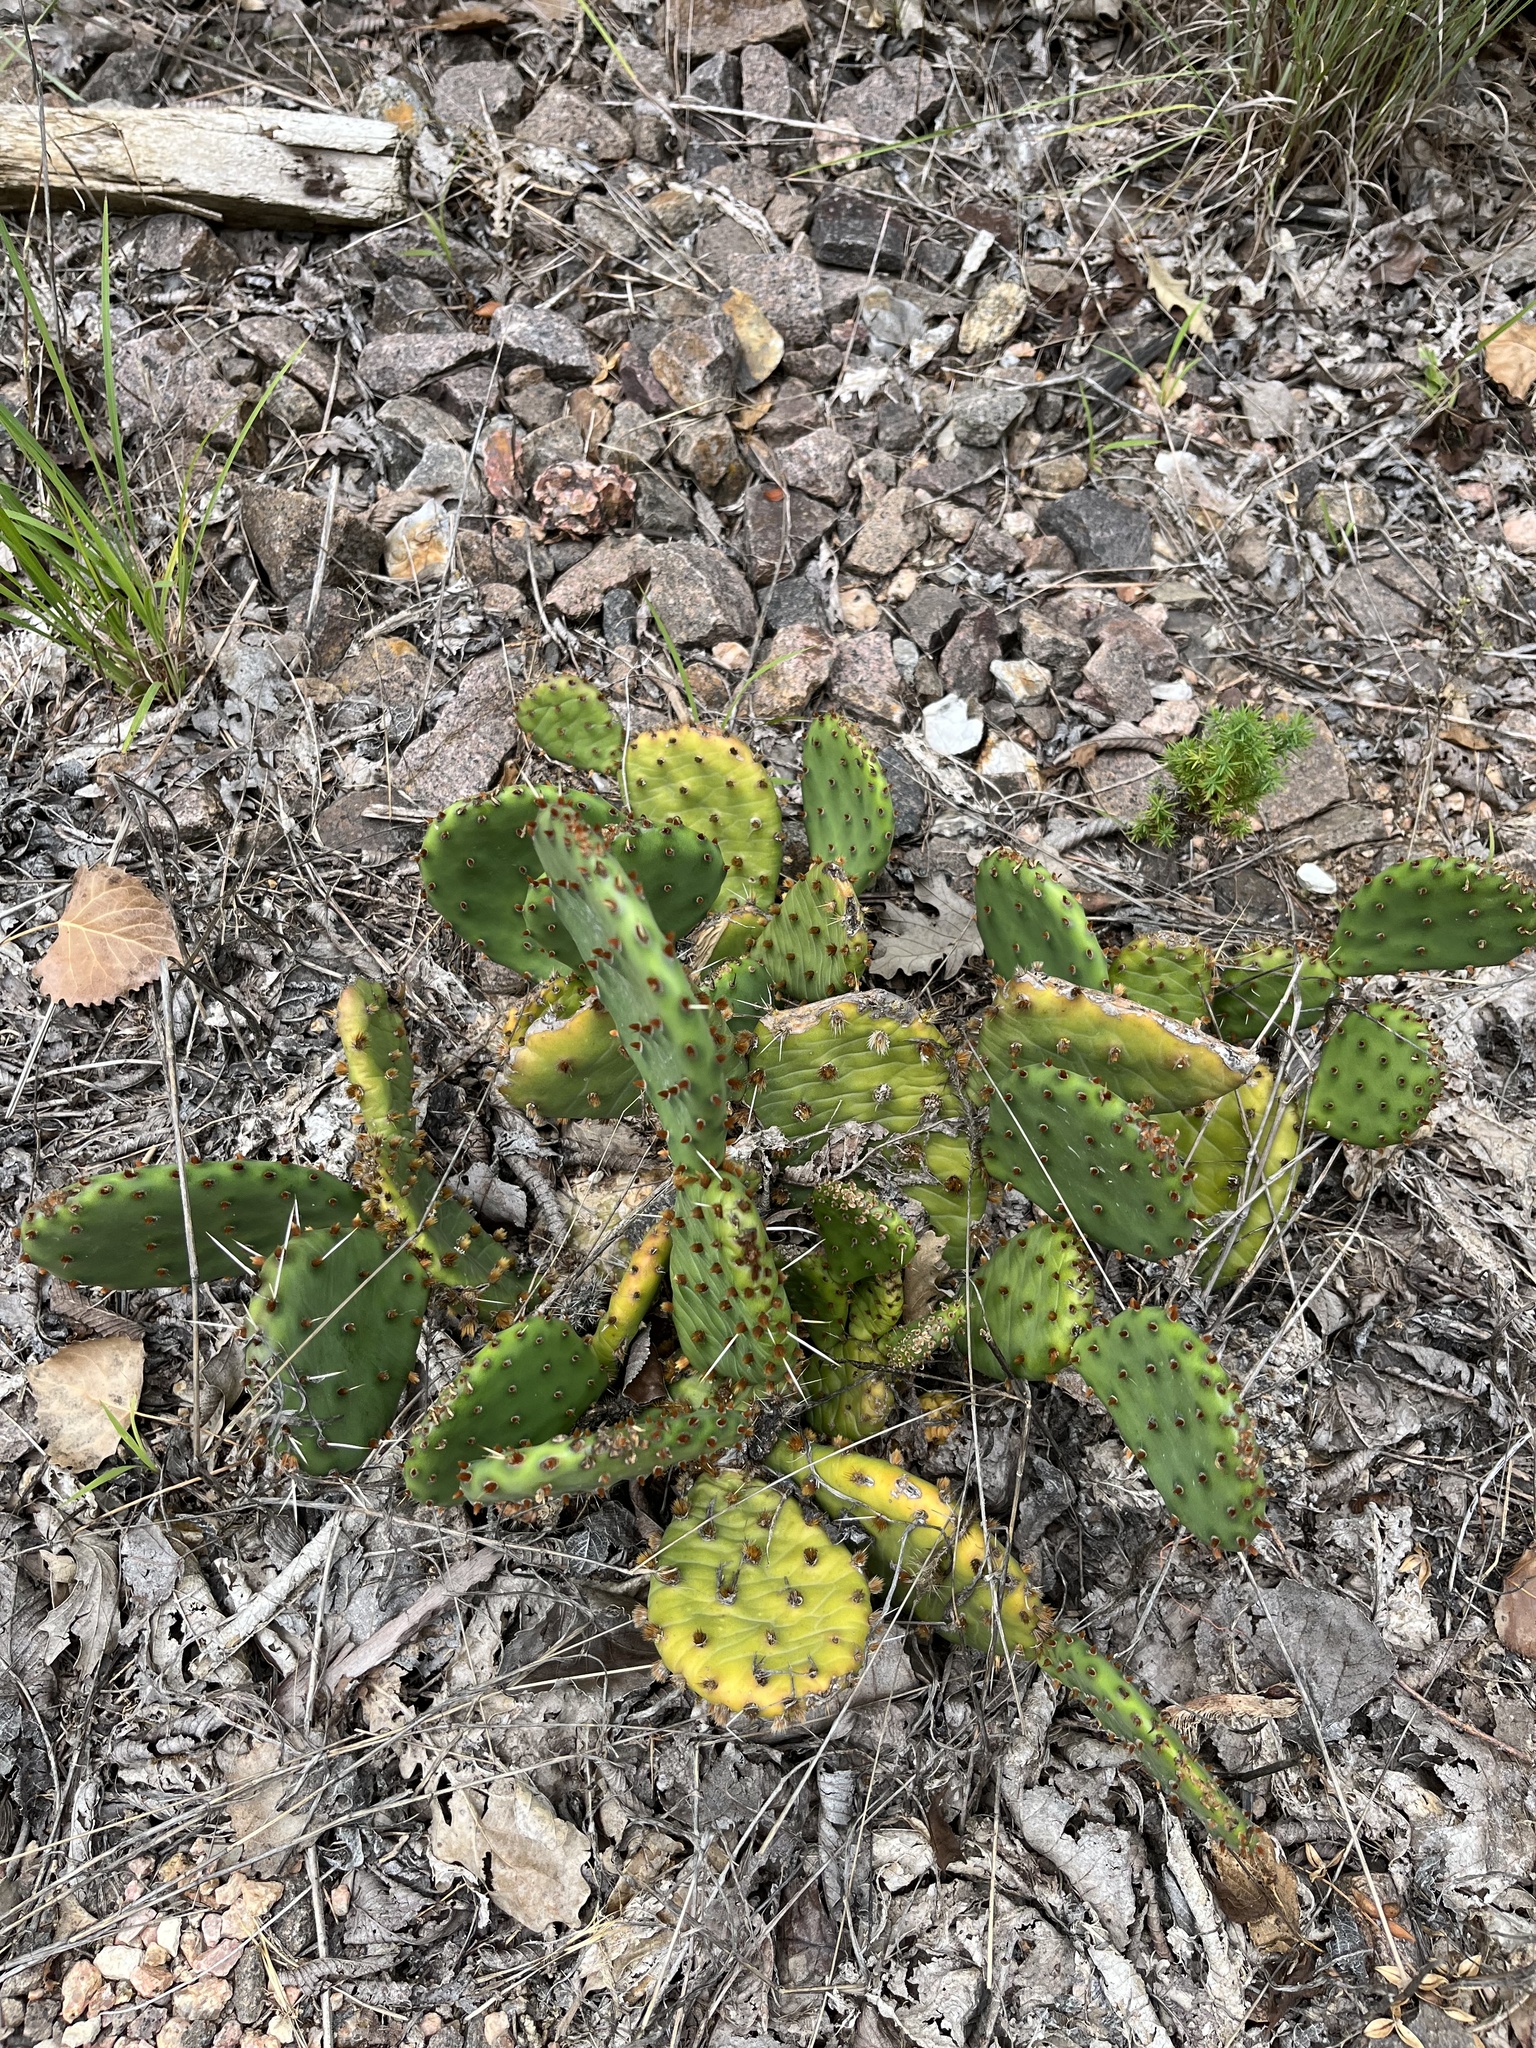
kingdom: Plantae
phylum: Tracheophyta
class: Magnoliopsida
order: Caryophyllales
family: Cactaceae
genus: Opuntia
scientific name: Opuntia macrorhiza
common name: Grassland pricklypear
